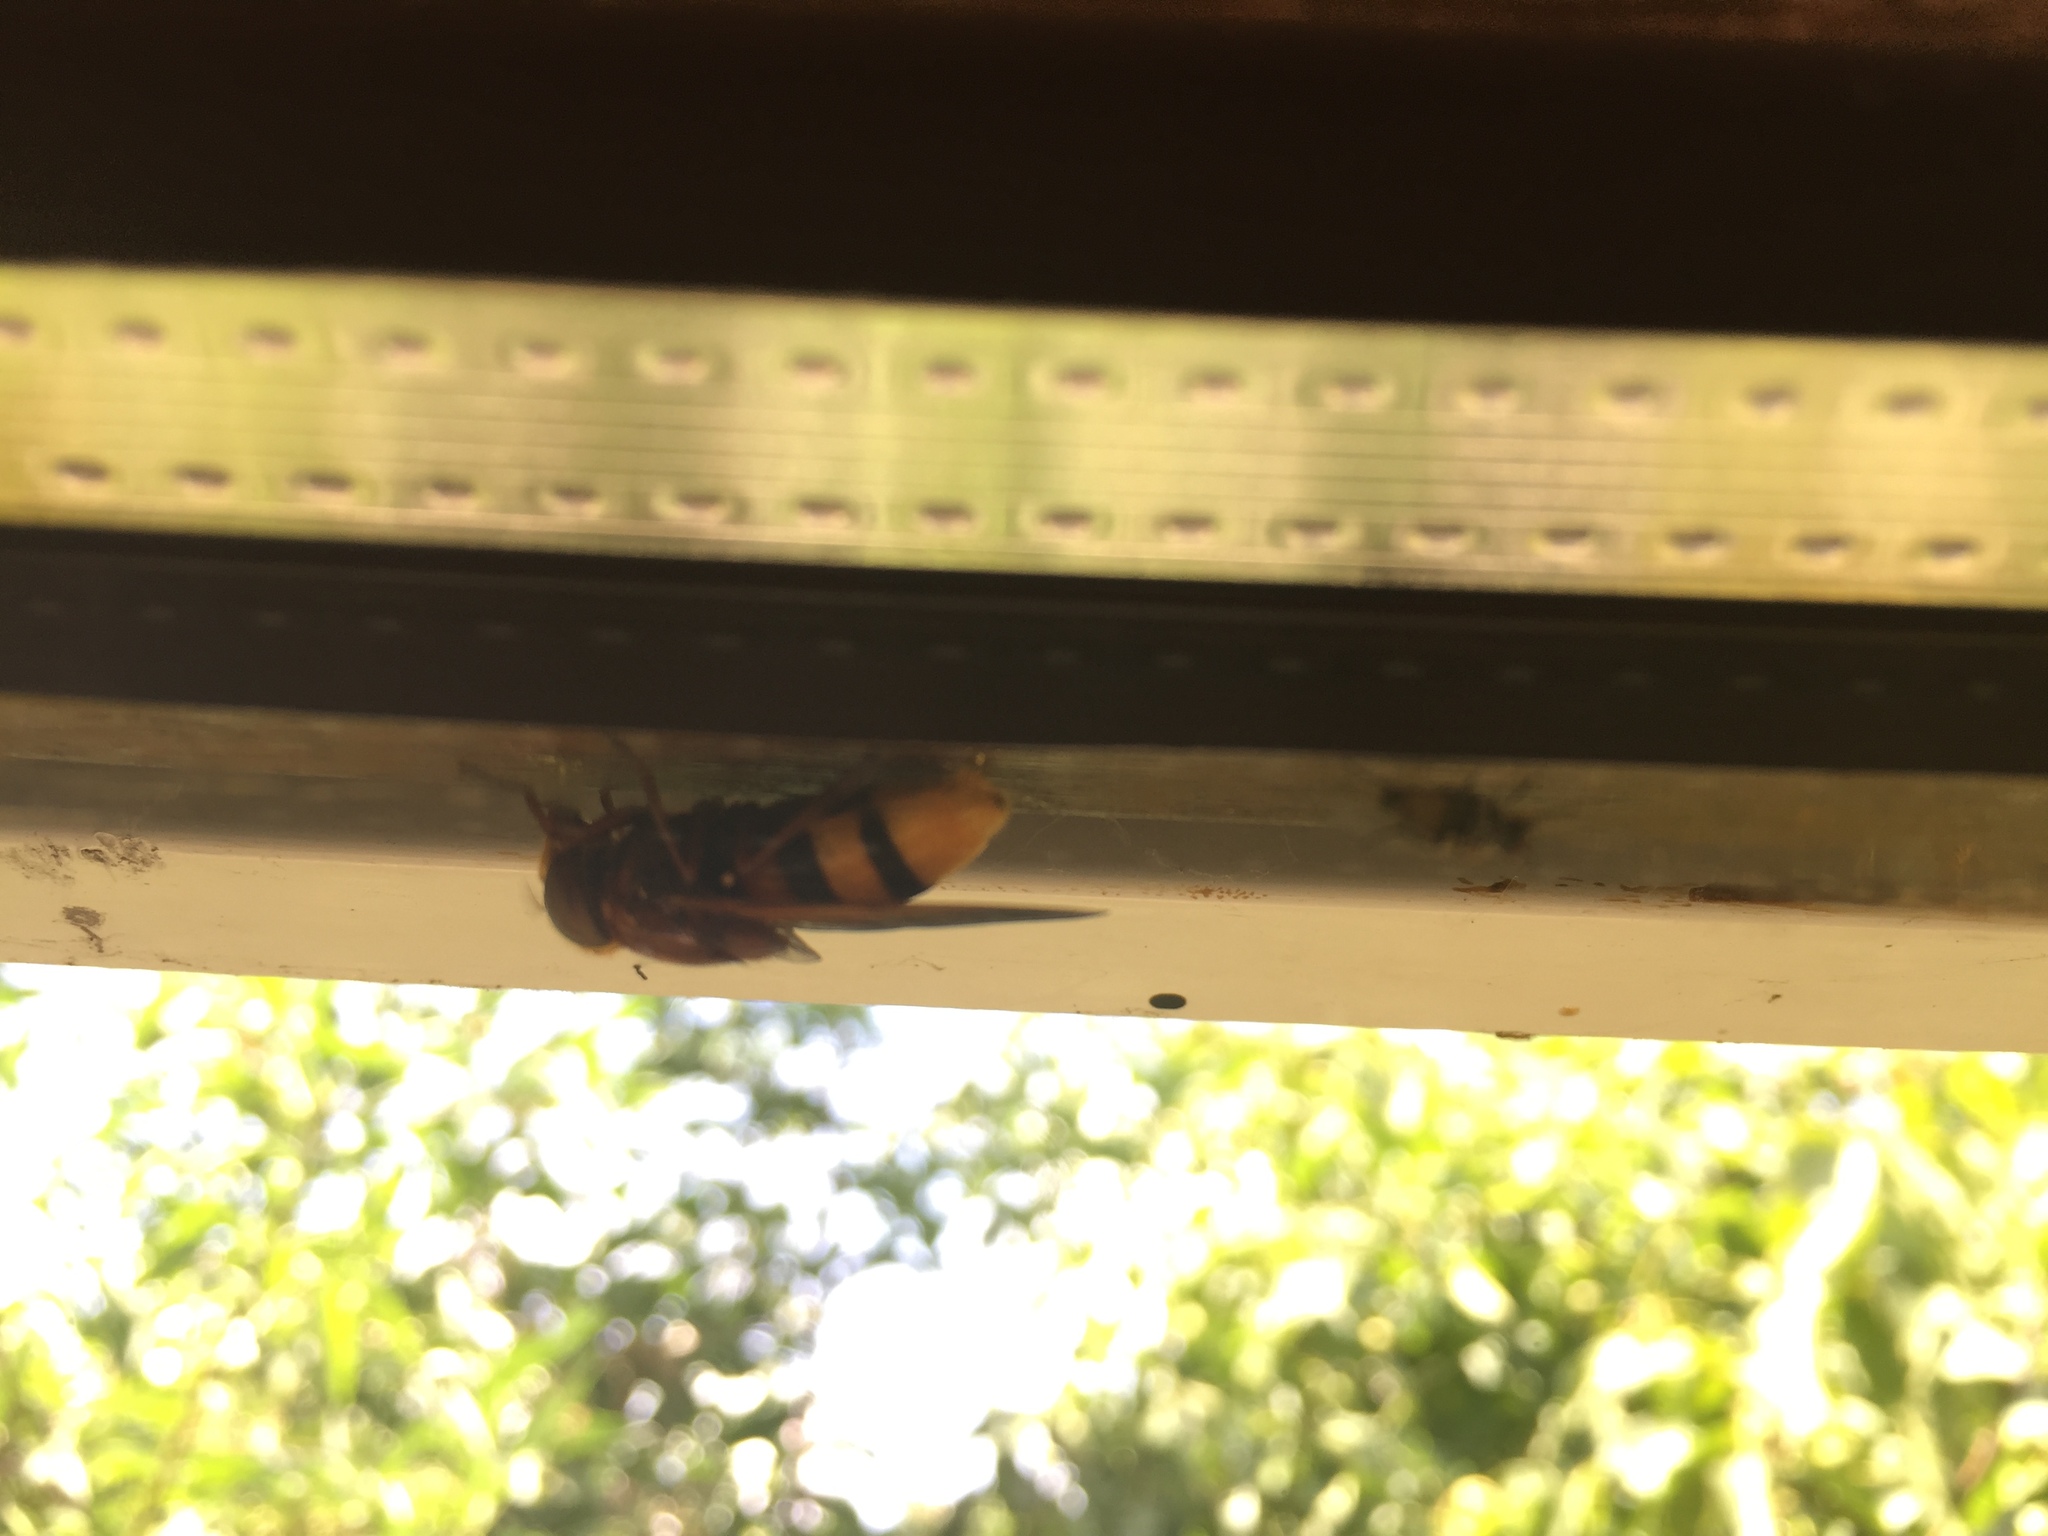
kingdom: Animalia
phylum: Arthropoda
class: Insecta
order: Diptera
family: Syrphidae
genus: Volucella
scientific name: Volucella zonaria
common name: Hornet hoverfly
